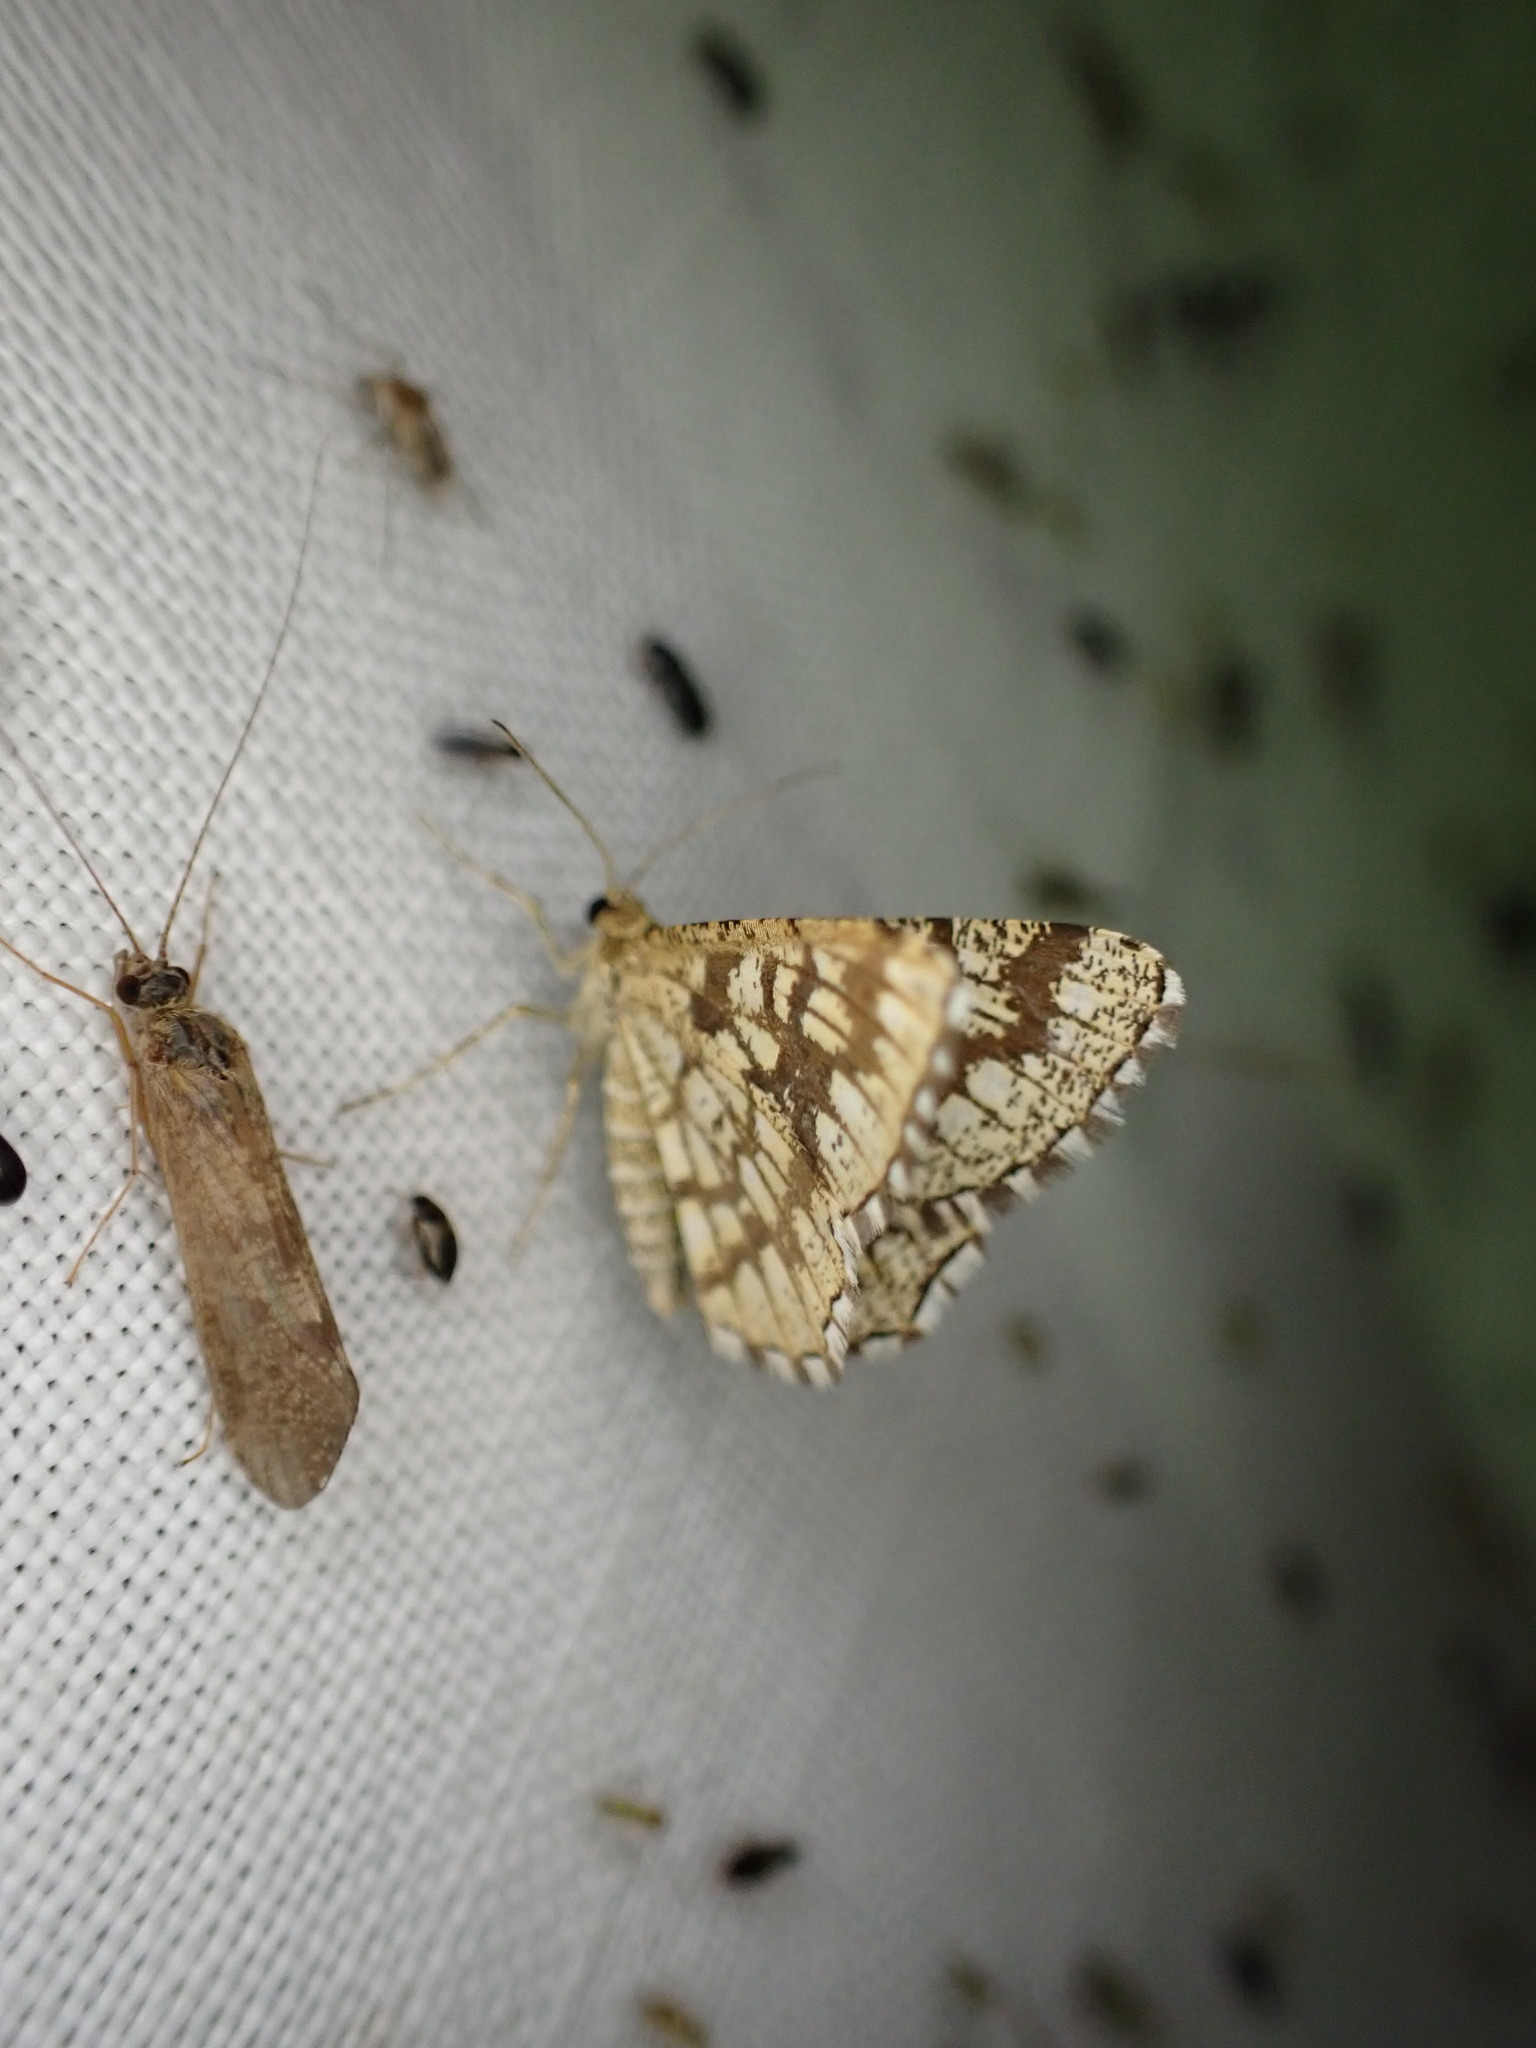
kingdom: Animalia
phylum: Arthropoda
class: Insecta
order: Lepidoptera
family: Geometridae
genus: Chiasmia
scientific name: Chiasmia clathrata
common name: Latticed heath
